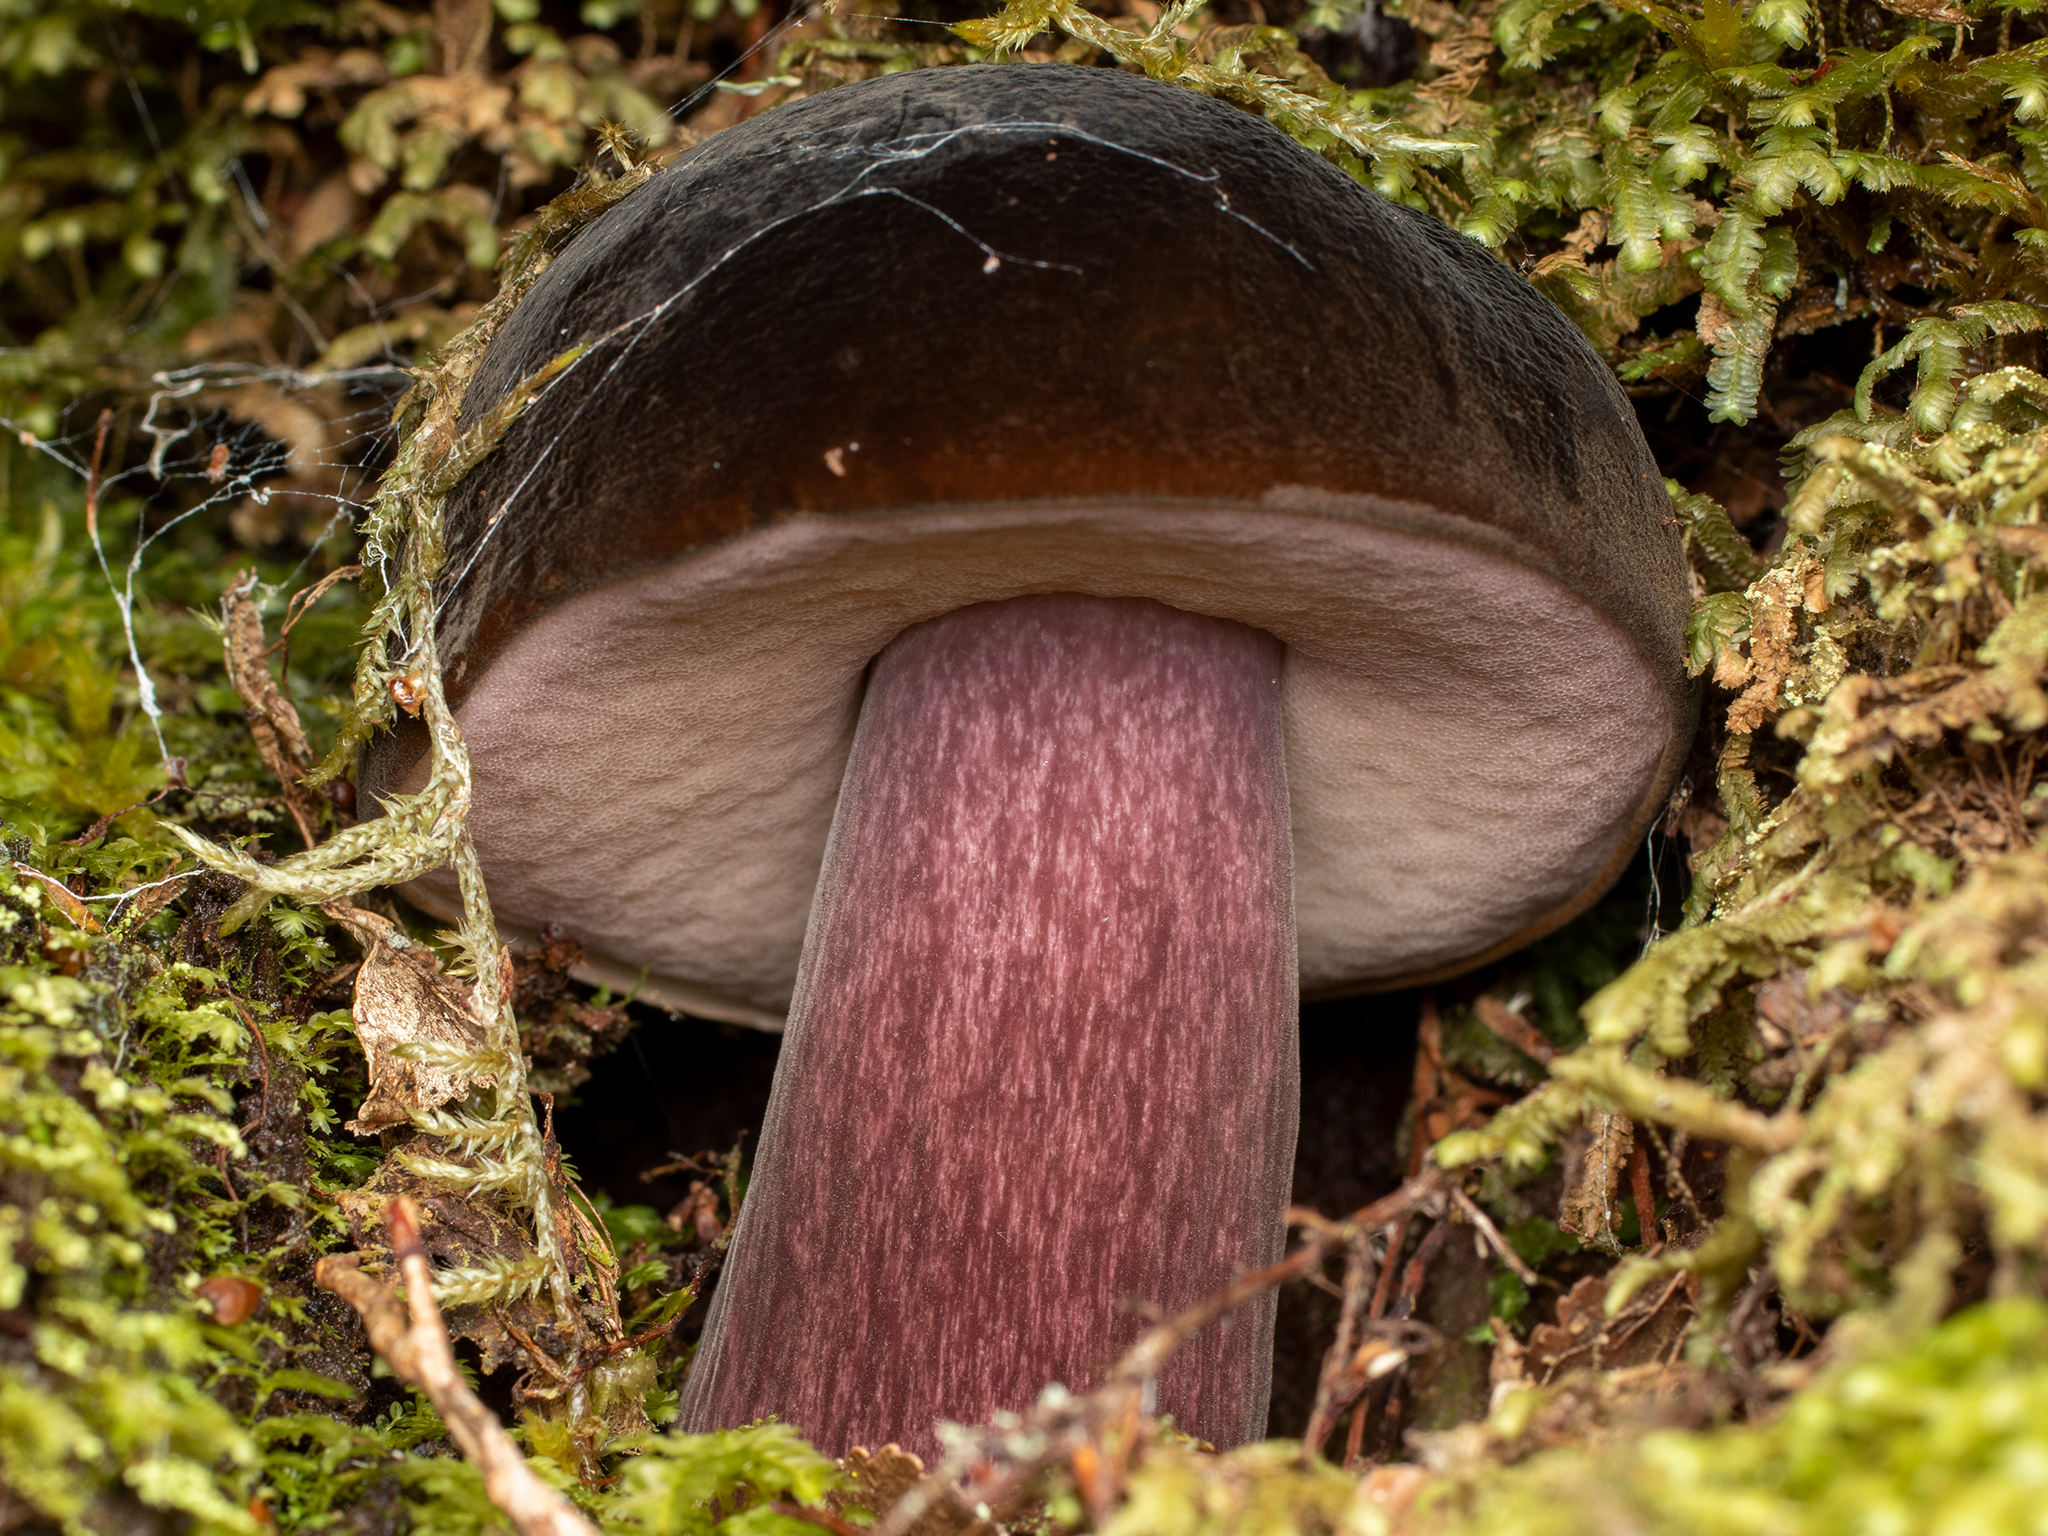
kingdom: Fungi
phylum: Basidiomycota
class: Agaricomycetes
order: Boletales
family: Boletaceae
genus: Porphyrellus
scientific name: Porphyrellus formosus
